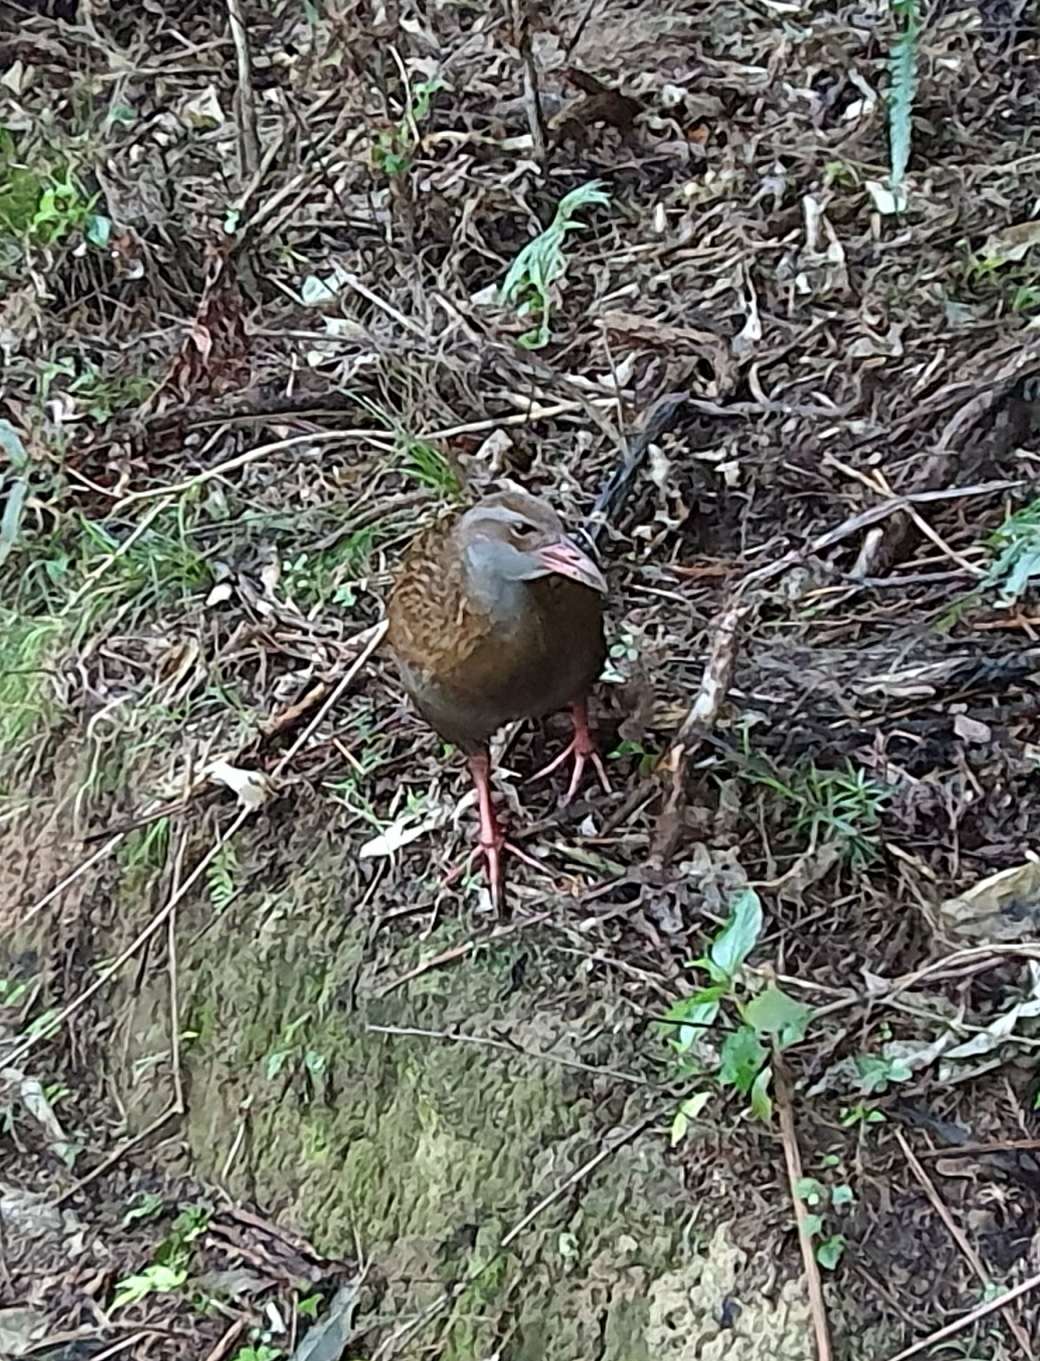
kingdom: Animalia
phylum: Chordata
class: Aves
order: Gruiformes
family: Rallidae
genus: Gallirallus
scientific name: Gallirallus australis
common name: Weka
